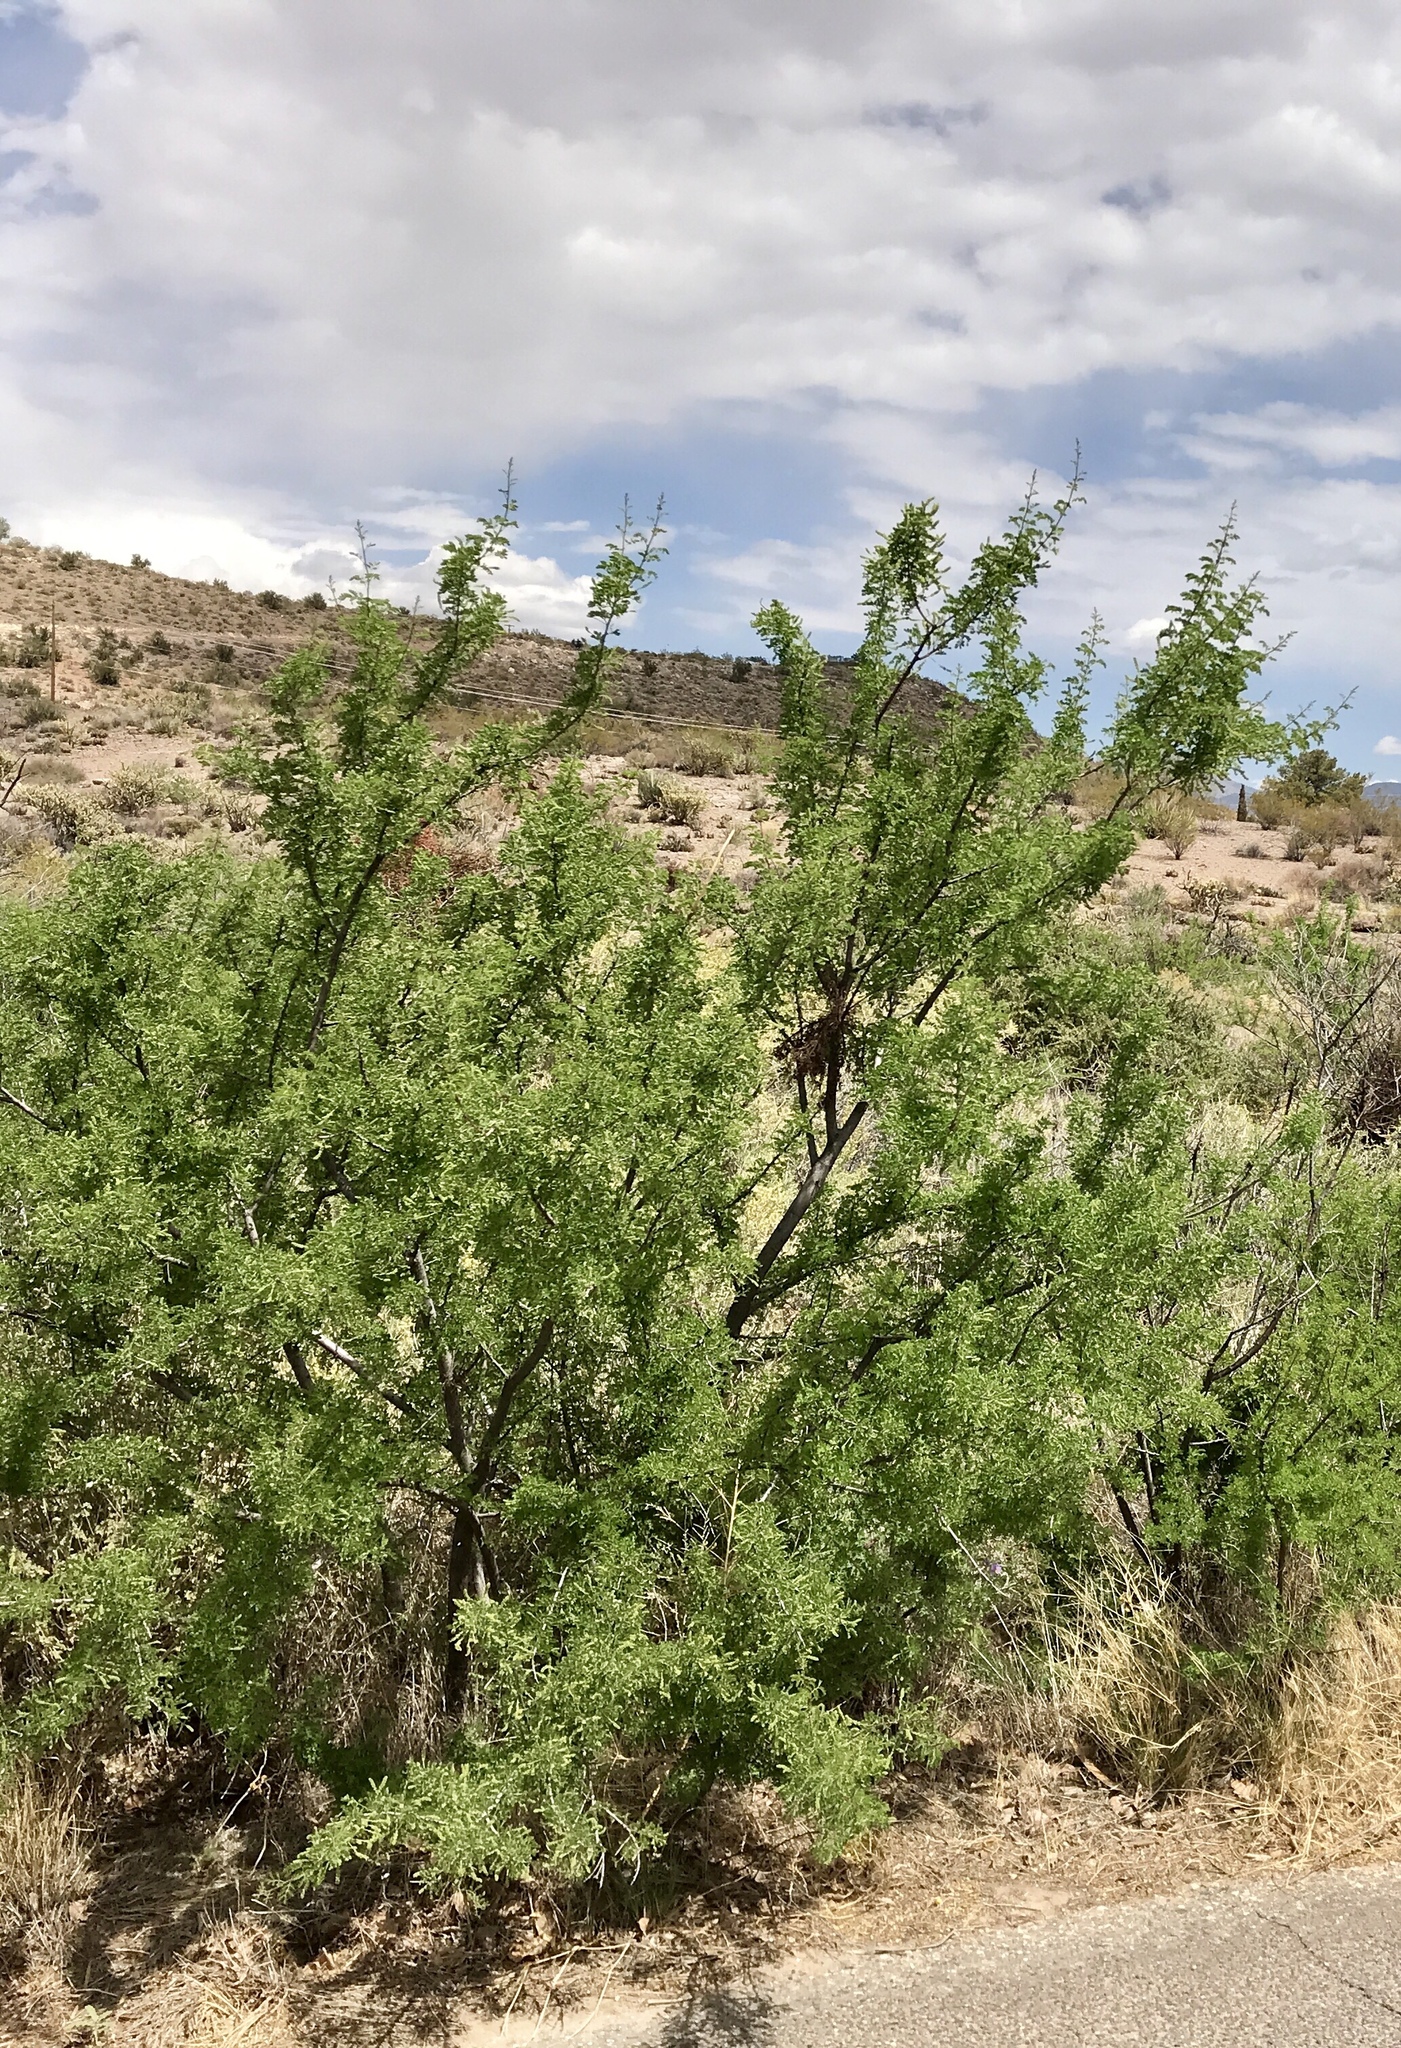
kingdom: Plantae
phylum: Tracheophyta
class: Magnoliopsida
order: Fabales
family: Fabaceae
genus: Senegalia
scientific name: Senegalia greggii
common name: Texas-mimosa
